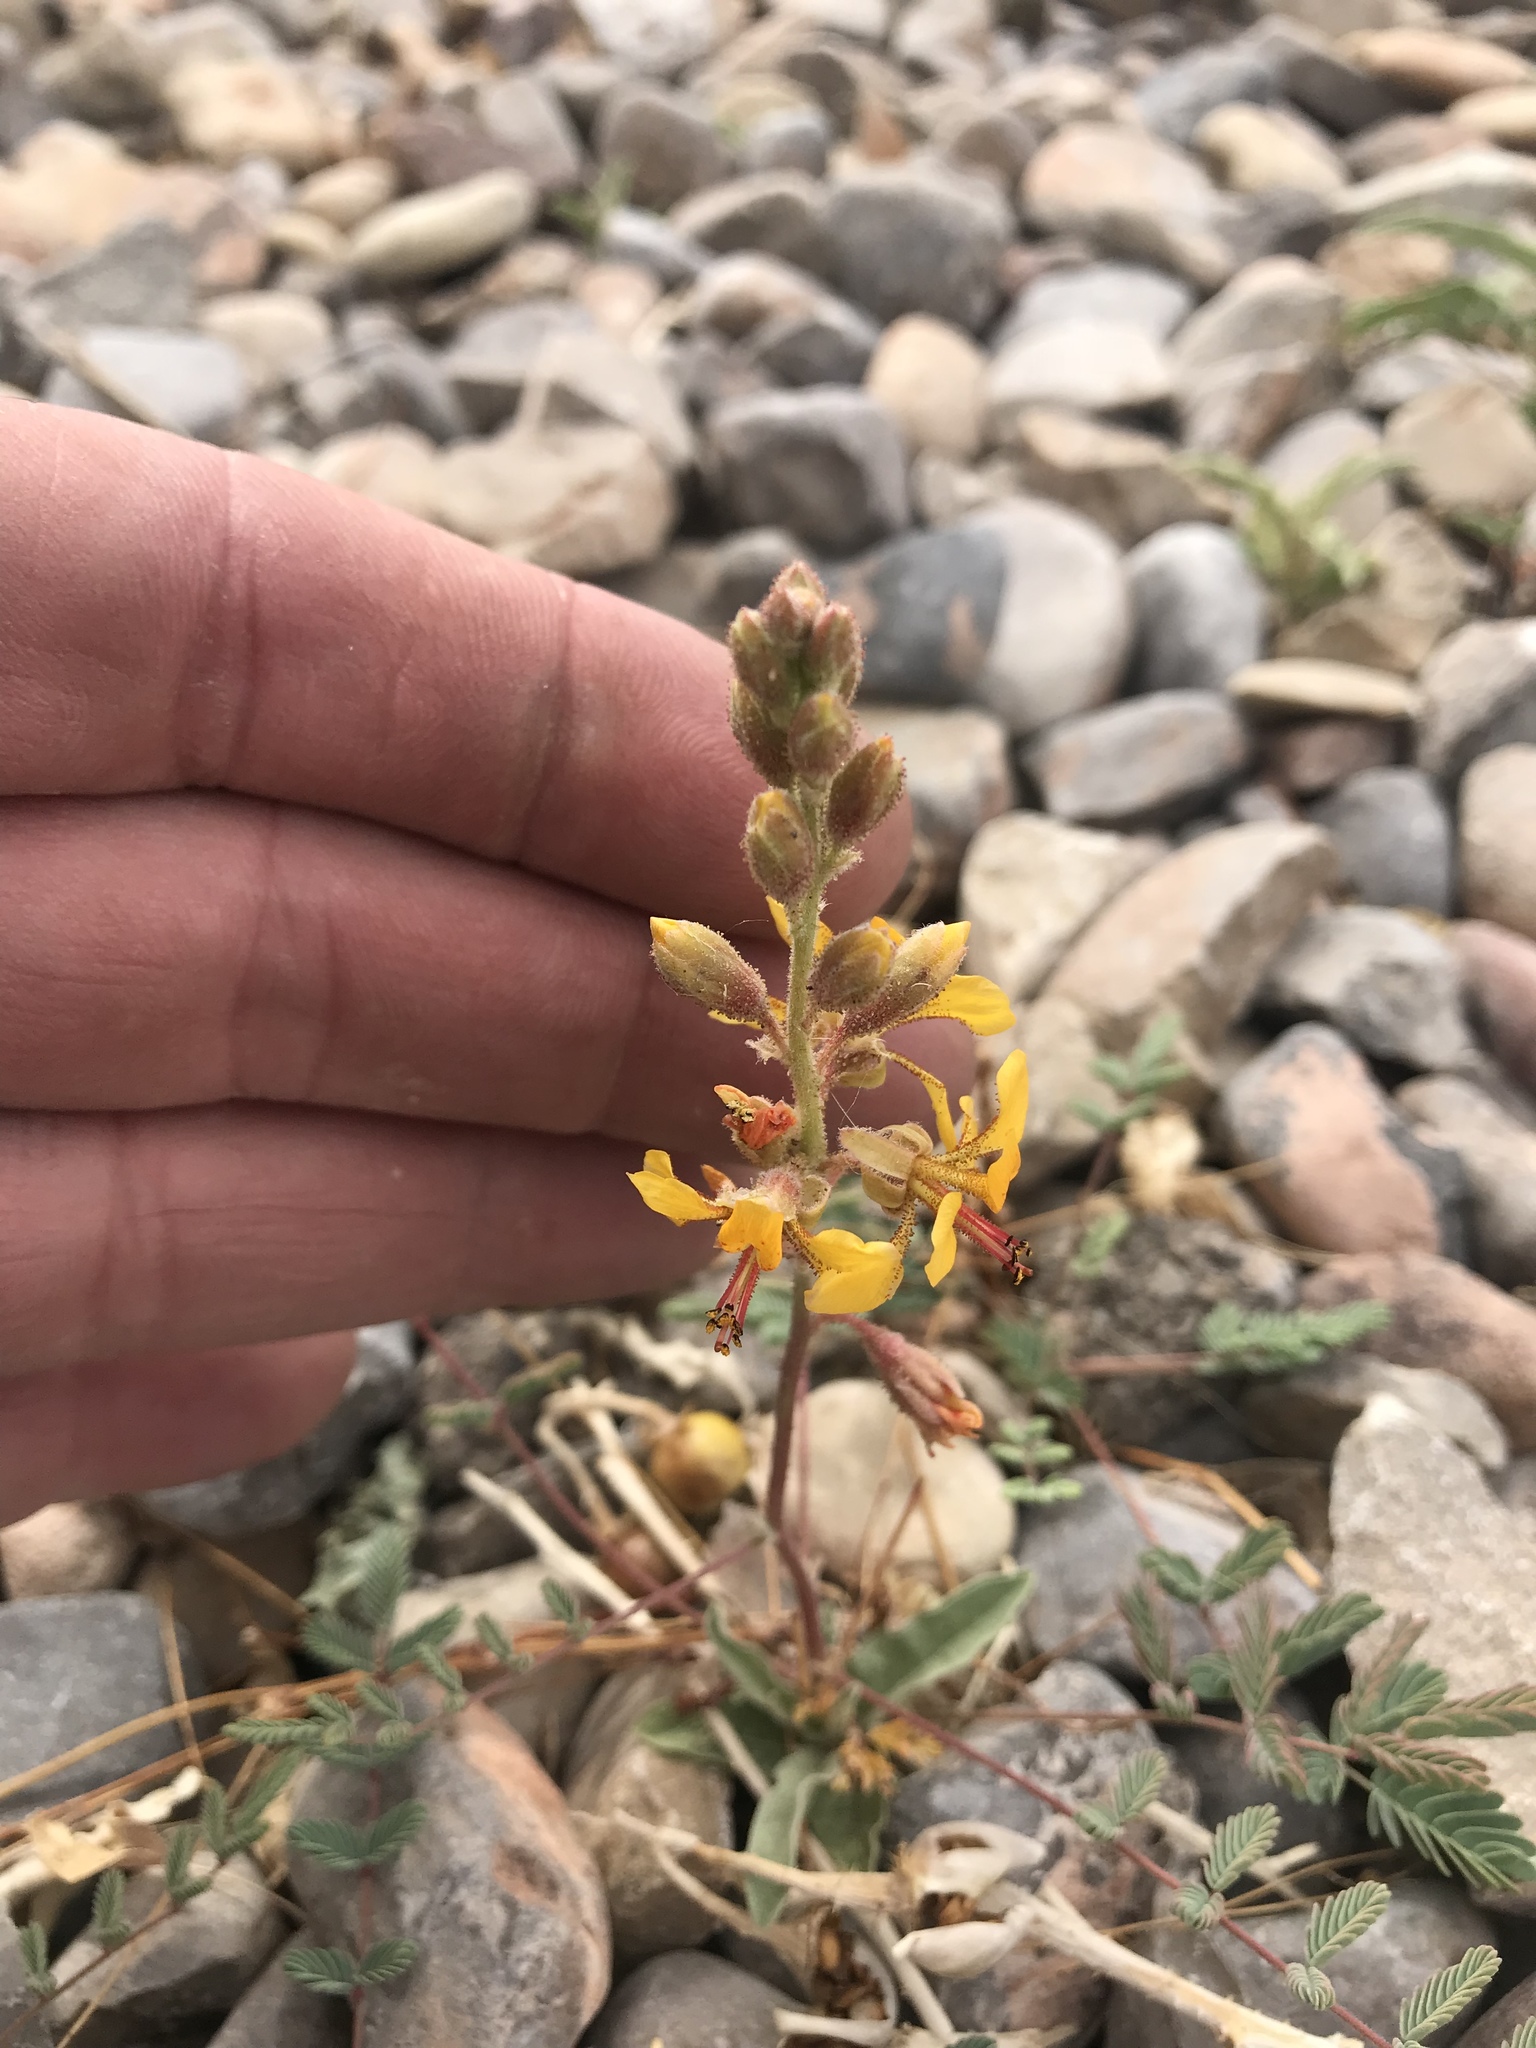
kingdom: Plantae
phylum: Tracheophyta
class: Magnoliopsida
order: Fabales
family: Fabaceae
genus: Hoffmannseggia
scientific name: Hoffmannseggia glauca
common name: Pignut
